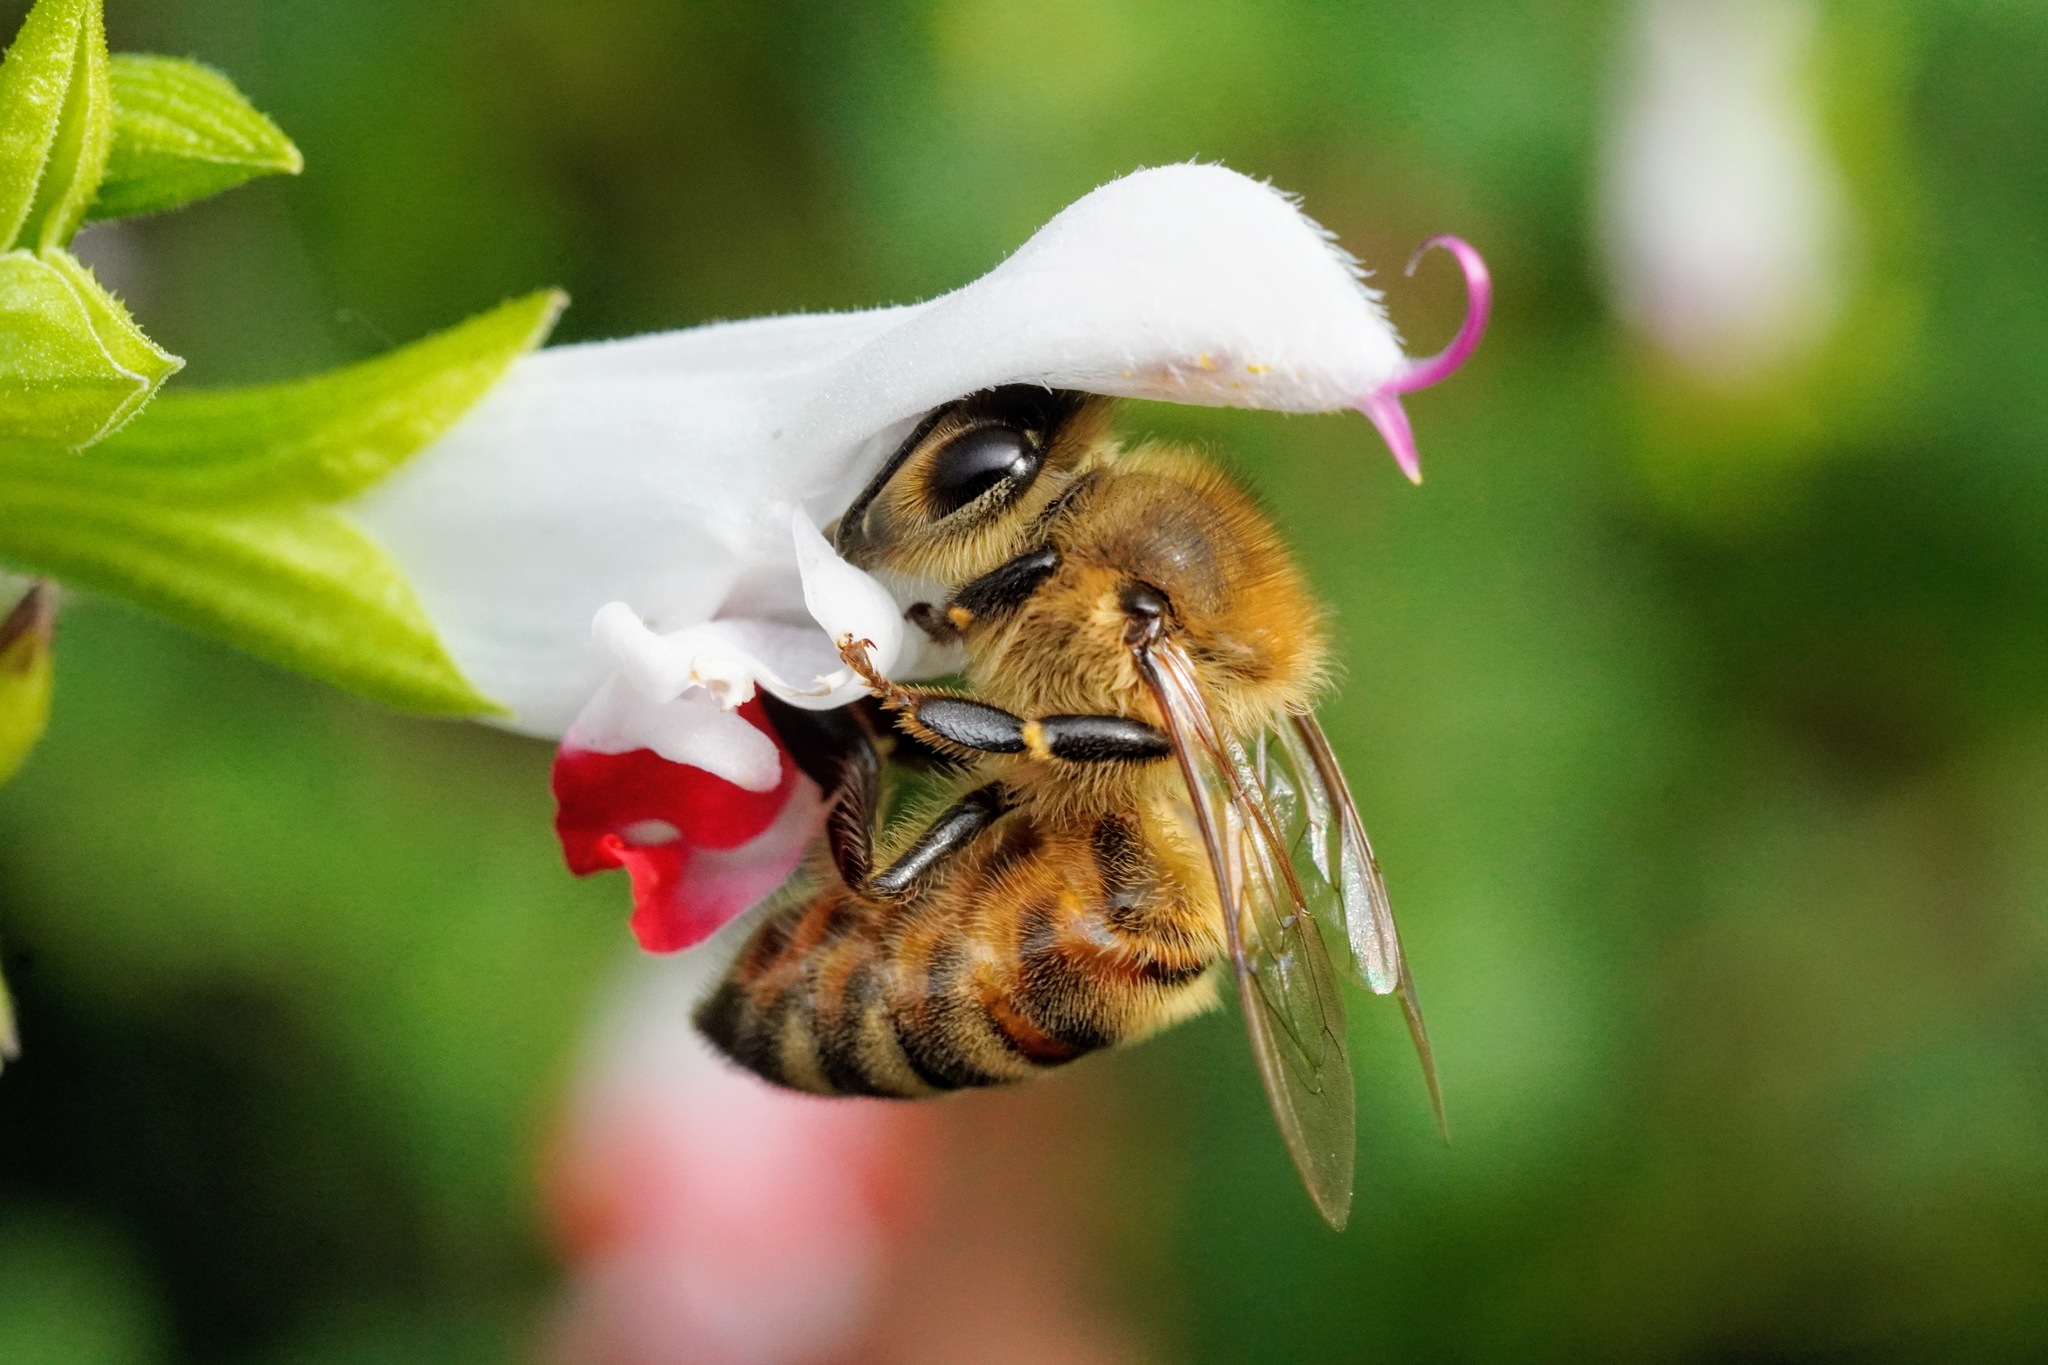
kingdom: Animalia
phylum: Arthropoda
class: Insecta
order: Hymenoptera
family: Apidae
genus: Apis
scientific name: Apis mellifera
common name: Honey bee
